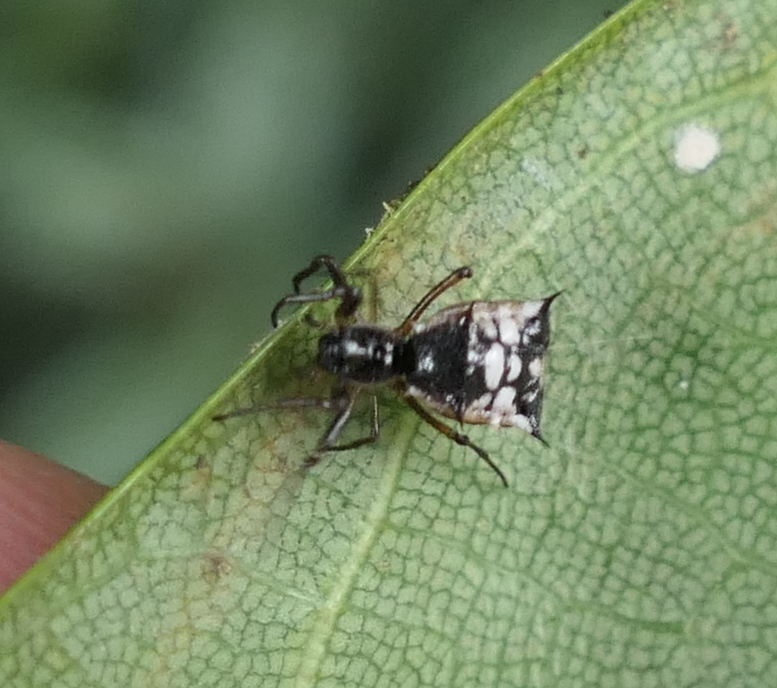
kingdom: Animalia
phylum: Arthropoda
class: Arachnida
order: Araneae
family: Araneidae
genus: Micrathena
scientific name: Micrathena picta
